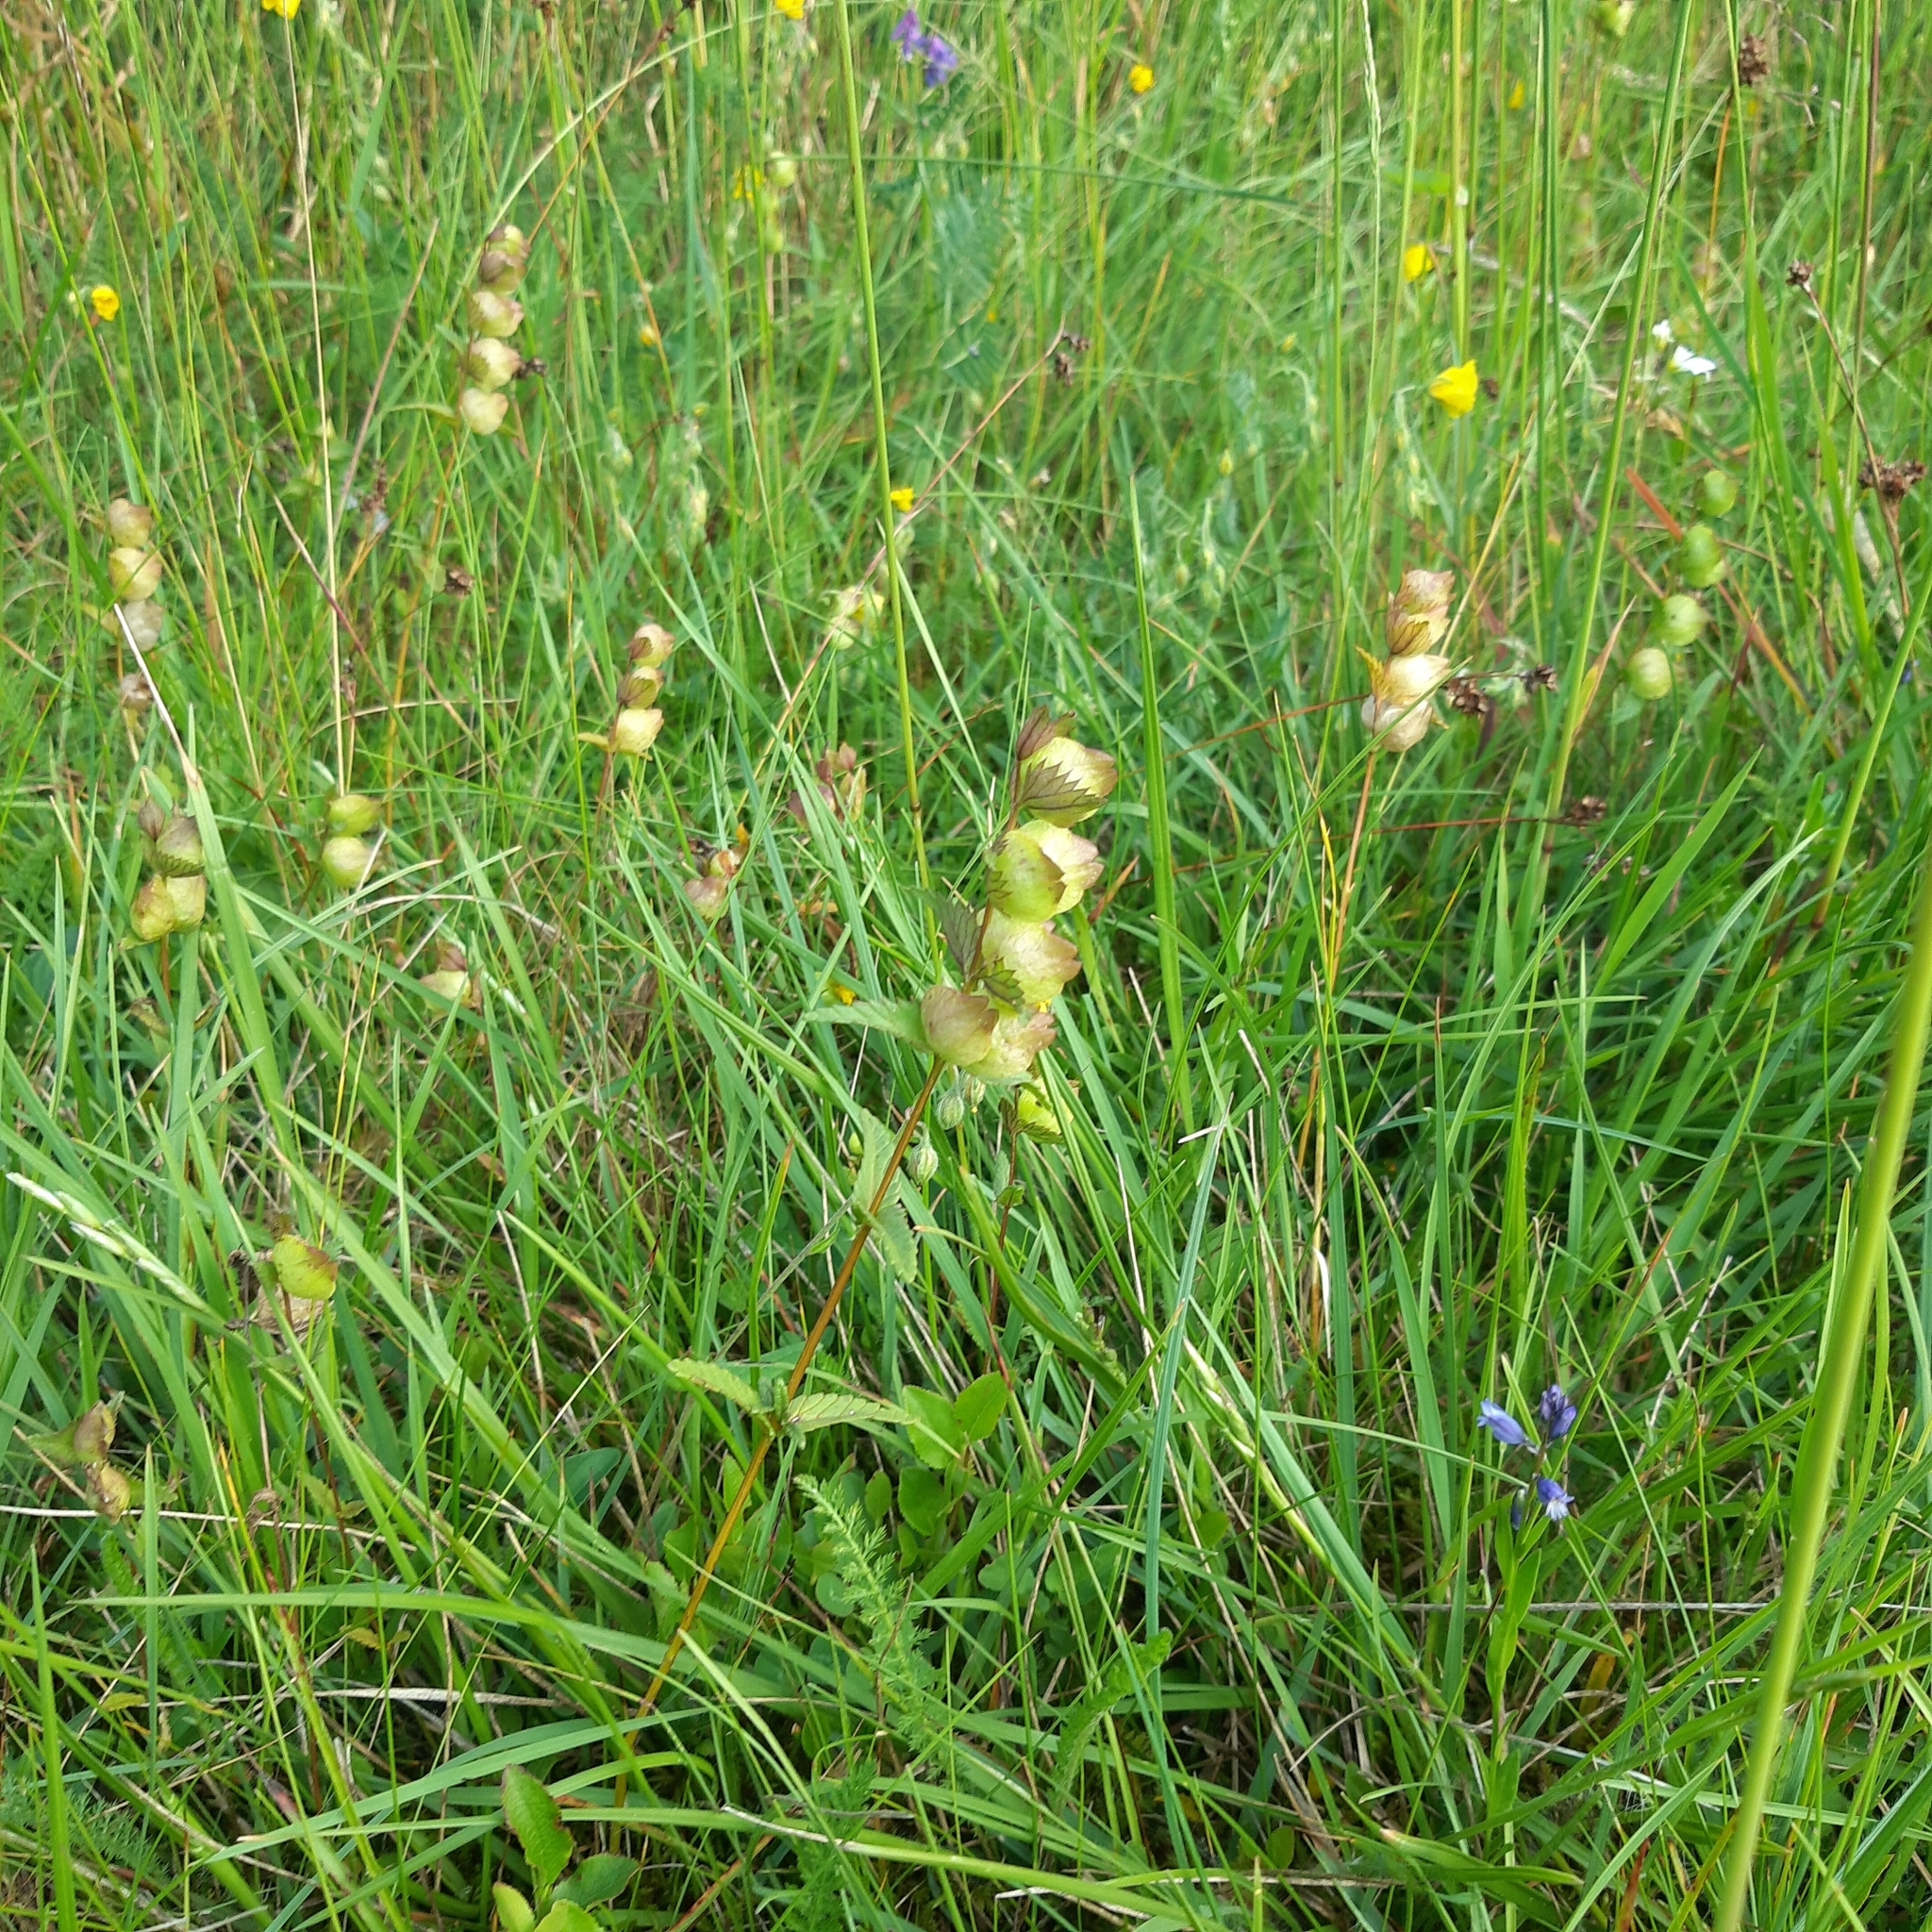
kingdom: Plantae
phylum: Tracheophyta
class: Magnoliopsida
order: Lamiales
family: Orobanchaceae
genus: Rhinanthus
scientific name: Rhinanthus minor
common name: Yellow-rattle
